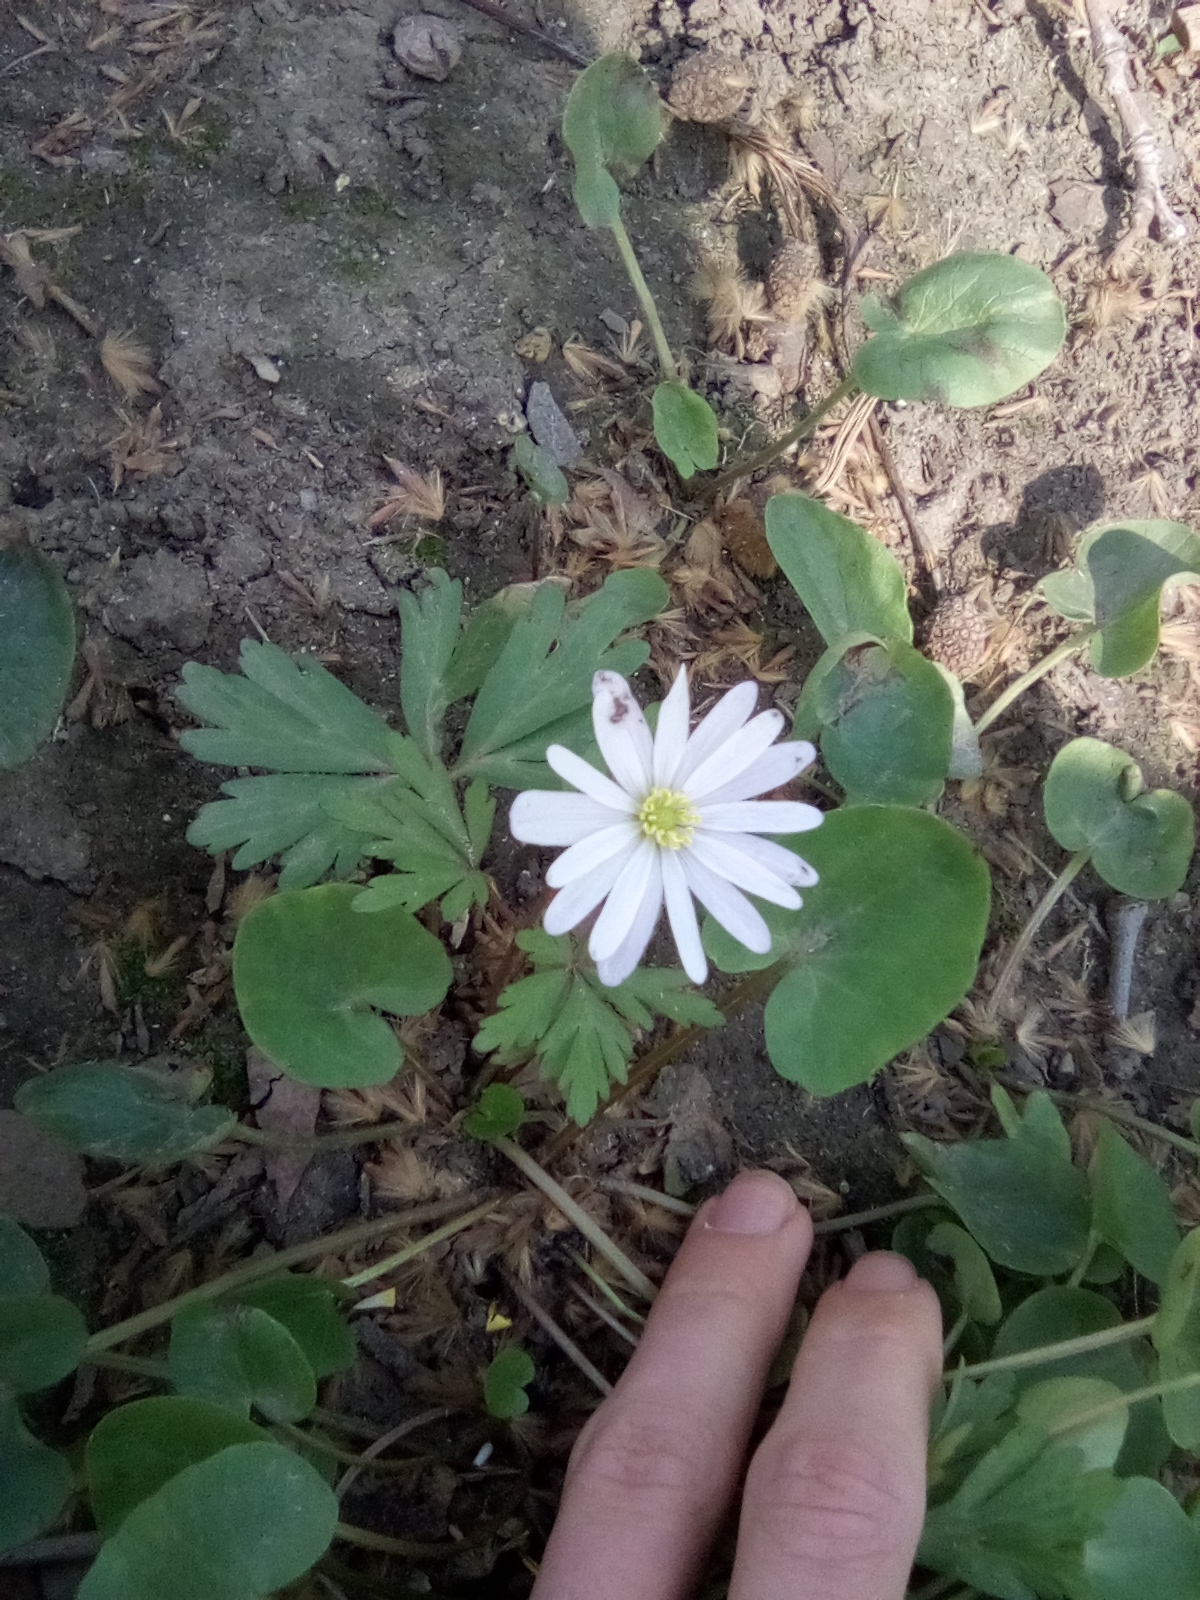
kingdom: Plantae
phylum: Tracheophyta
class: Magnoliopsida
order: Ranunculales
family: Ranunculaceae
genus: Anemone
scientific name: Anemone blanda
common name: Balkan anemone
